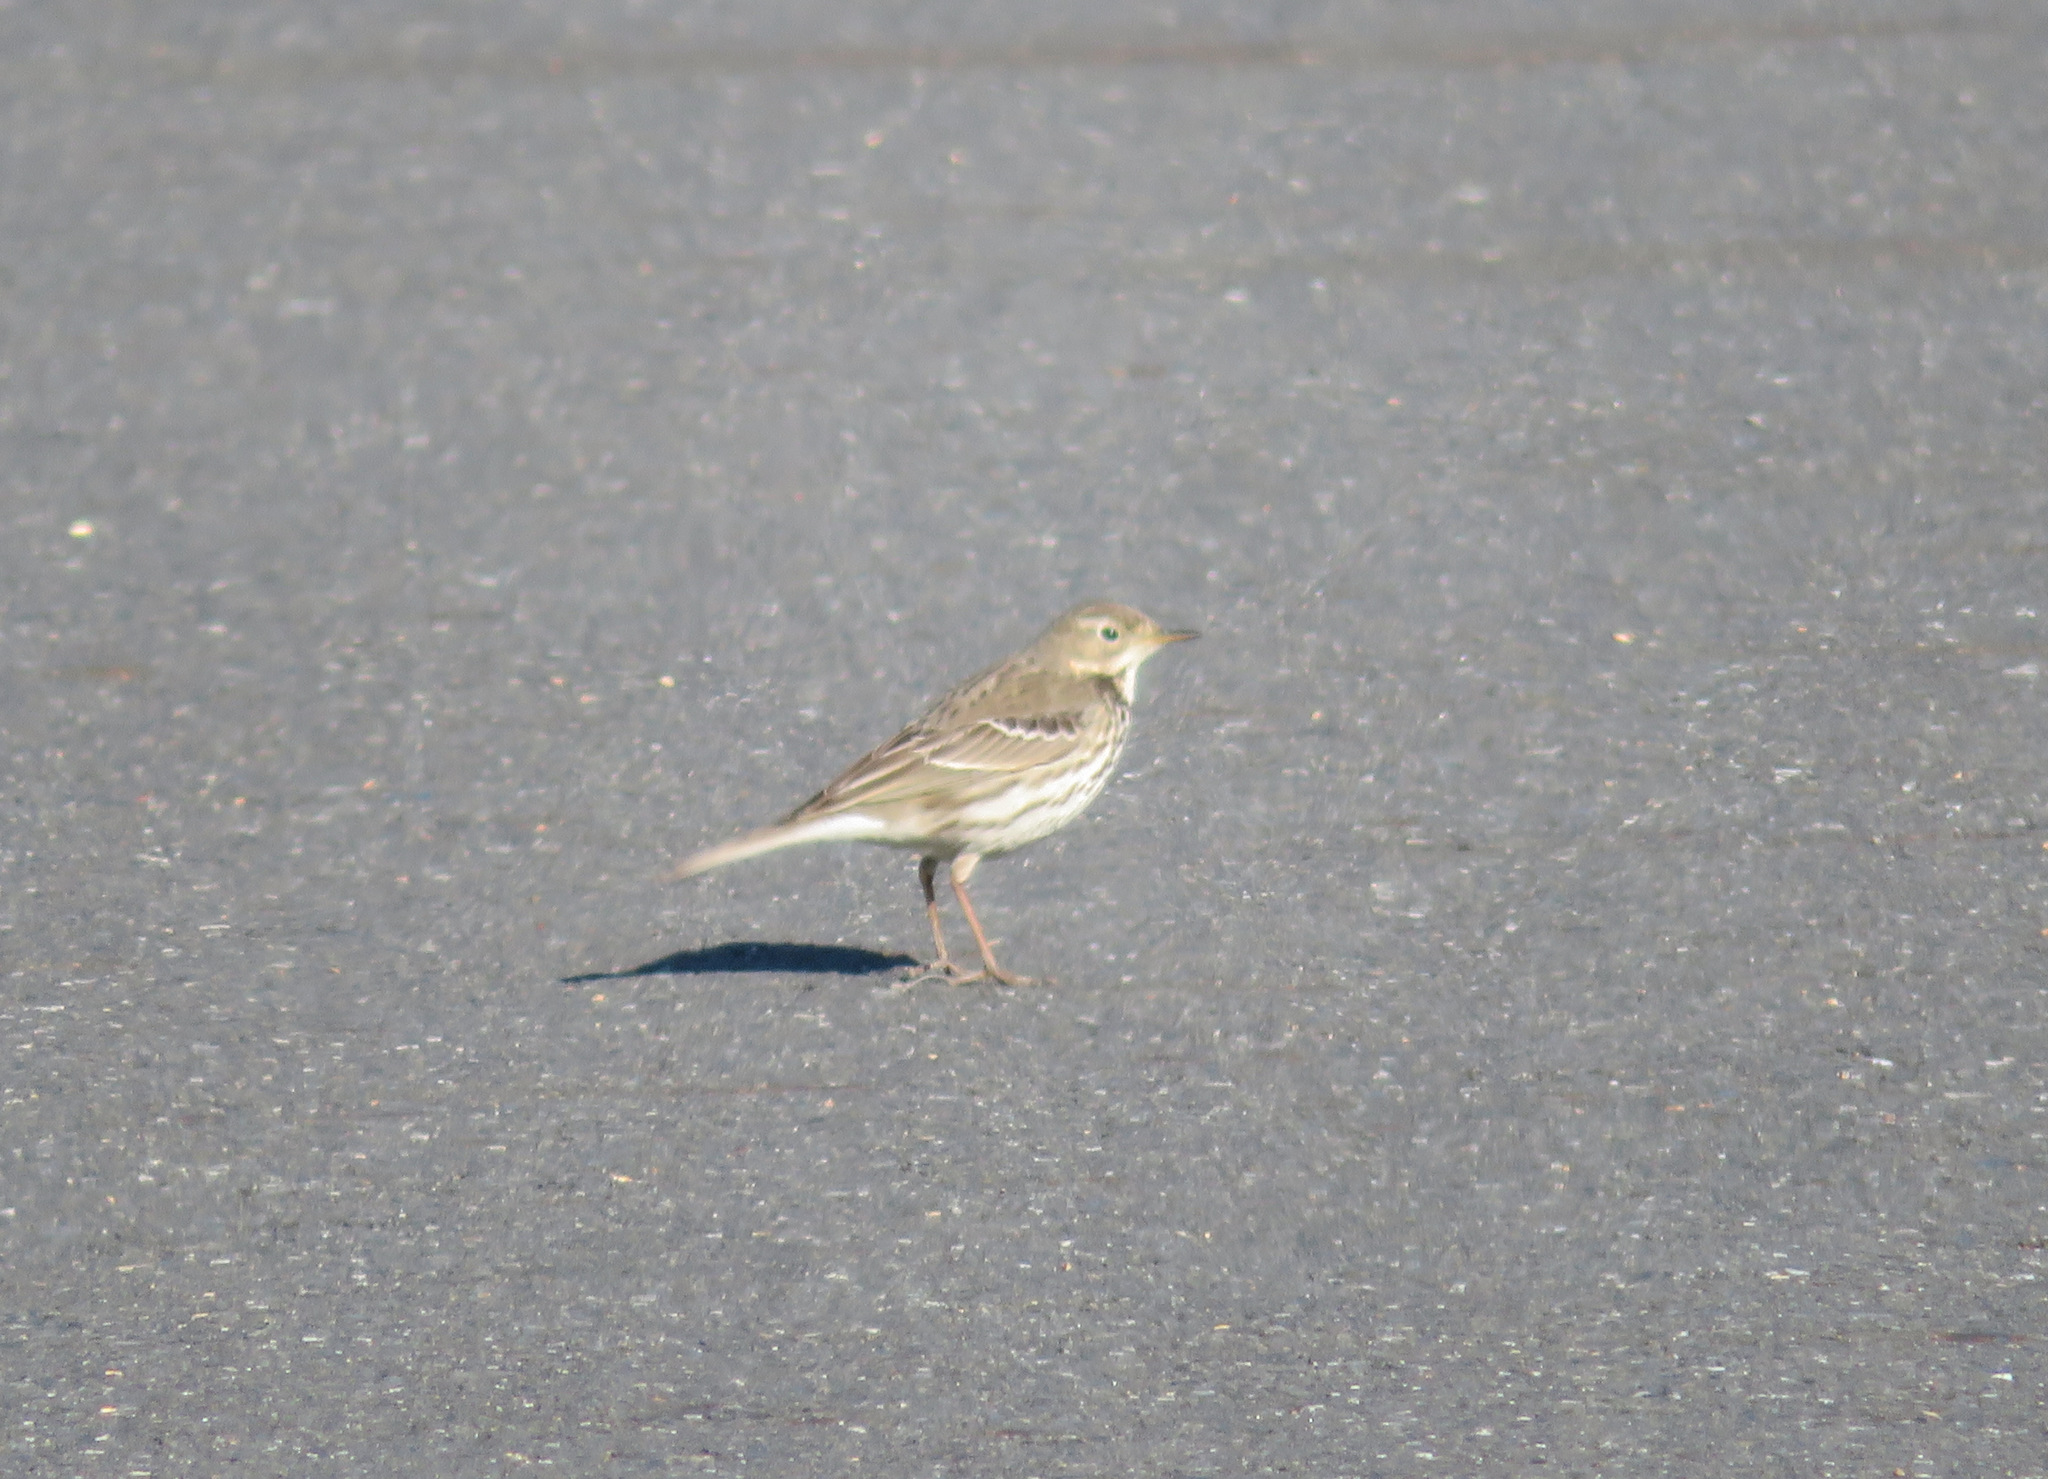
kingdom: Animalia
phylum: Chordata
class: Aves
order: Passeriformes
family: Motacillidae
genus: Anthus
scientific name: Anthus rubescens
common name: Buff-bellied pipit
